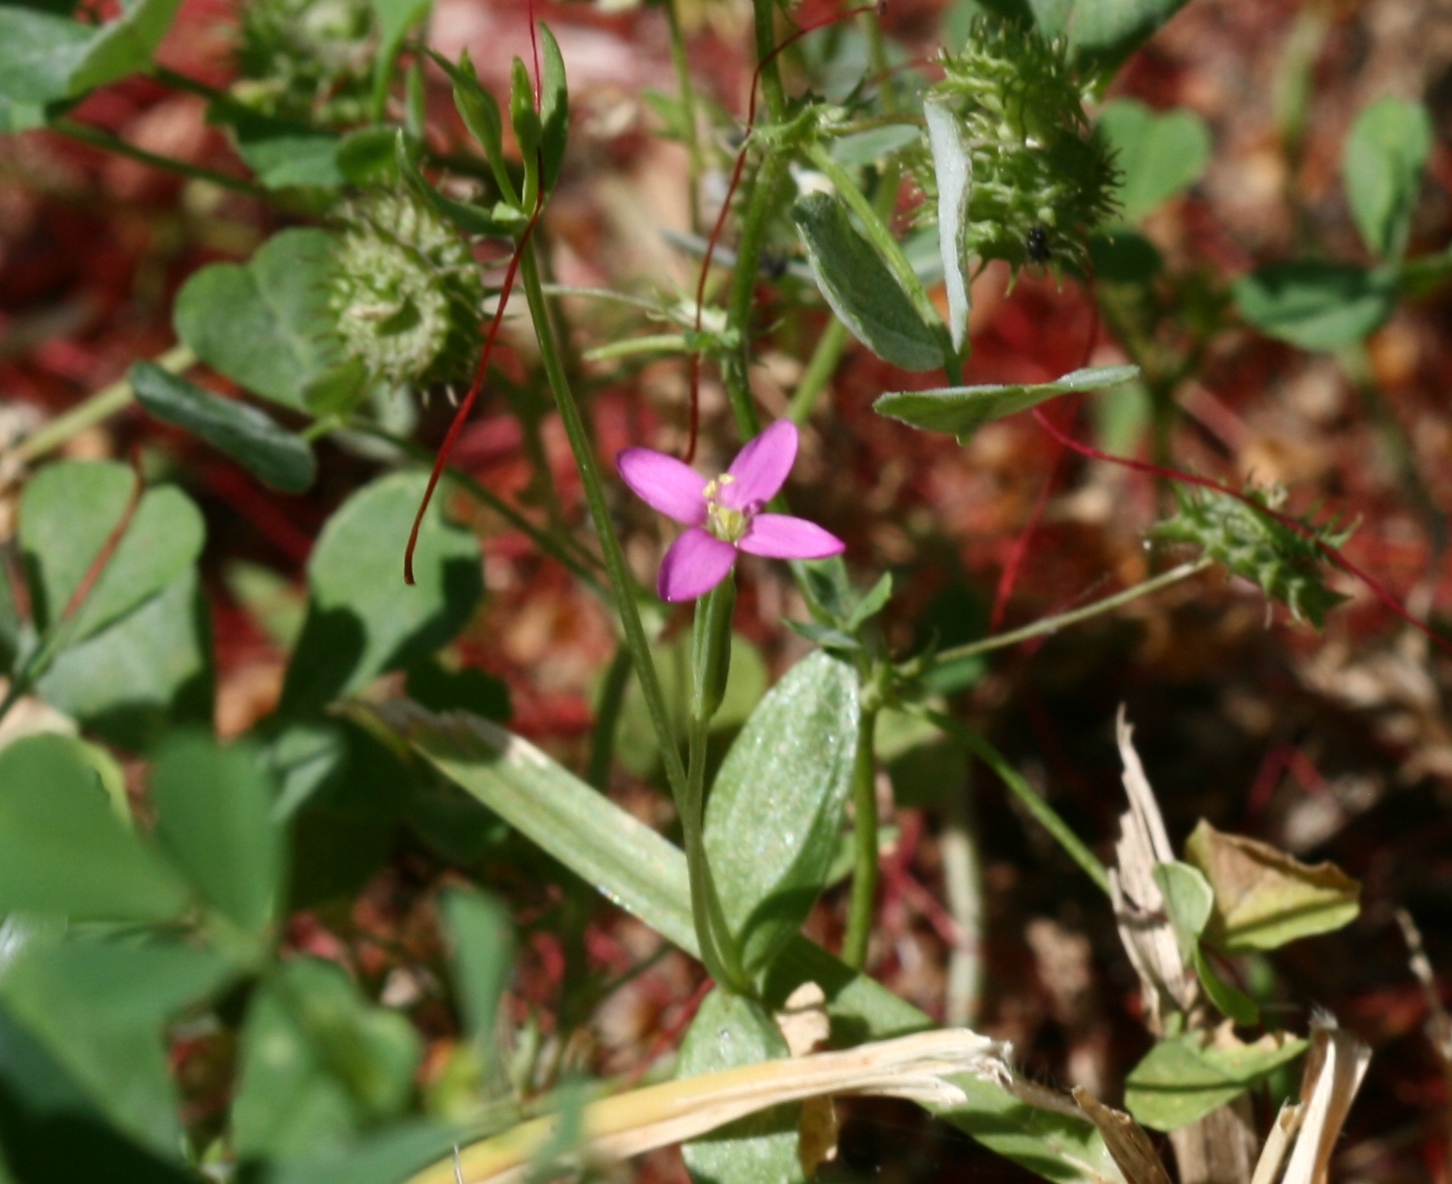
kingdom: Plantae
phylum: Tracheophyta
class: Magnoliopsida
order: Gentianales
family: Gentianaceae
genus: Centaurium
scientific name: Centaurium tenuiflorum
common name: Slender centaury
